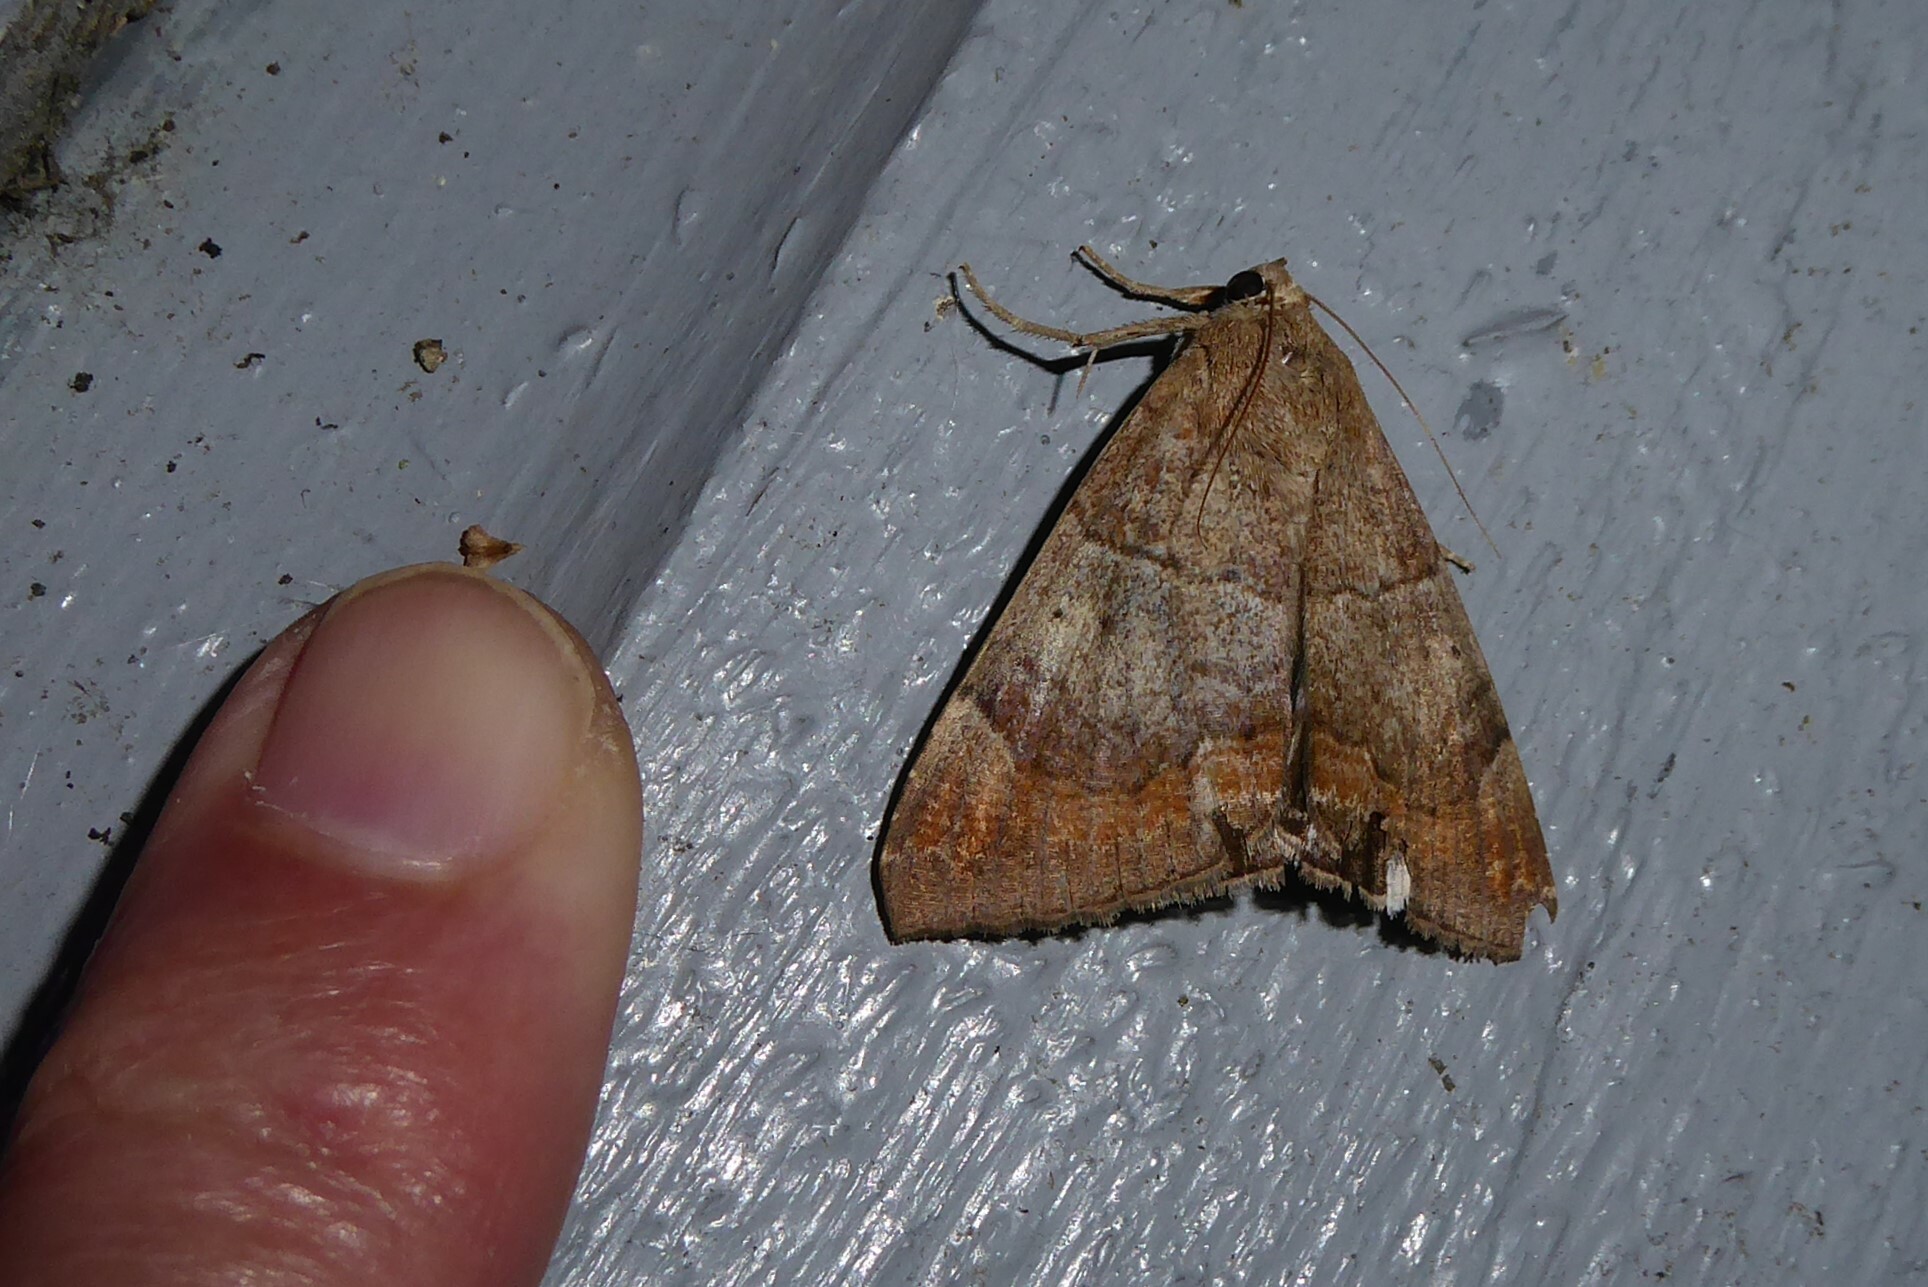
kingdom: Animalia
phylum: Arthropoda
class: Insecta
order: Lepidoptera
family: Erebidae
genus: Achaea
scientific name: Achaea janata
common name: Croton caterpillar
